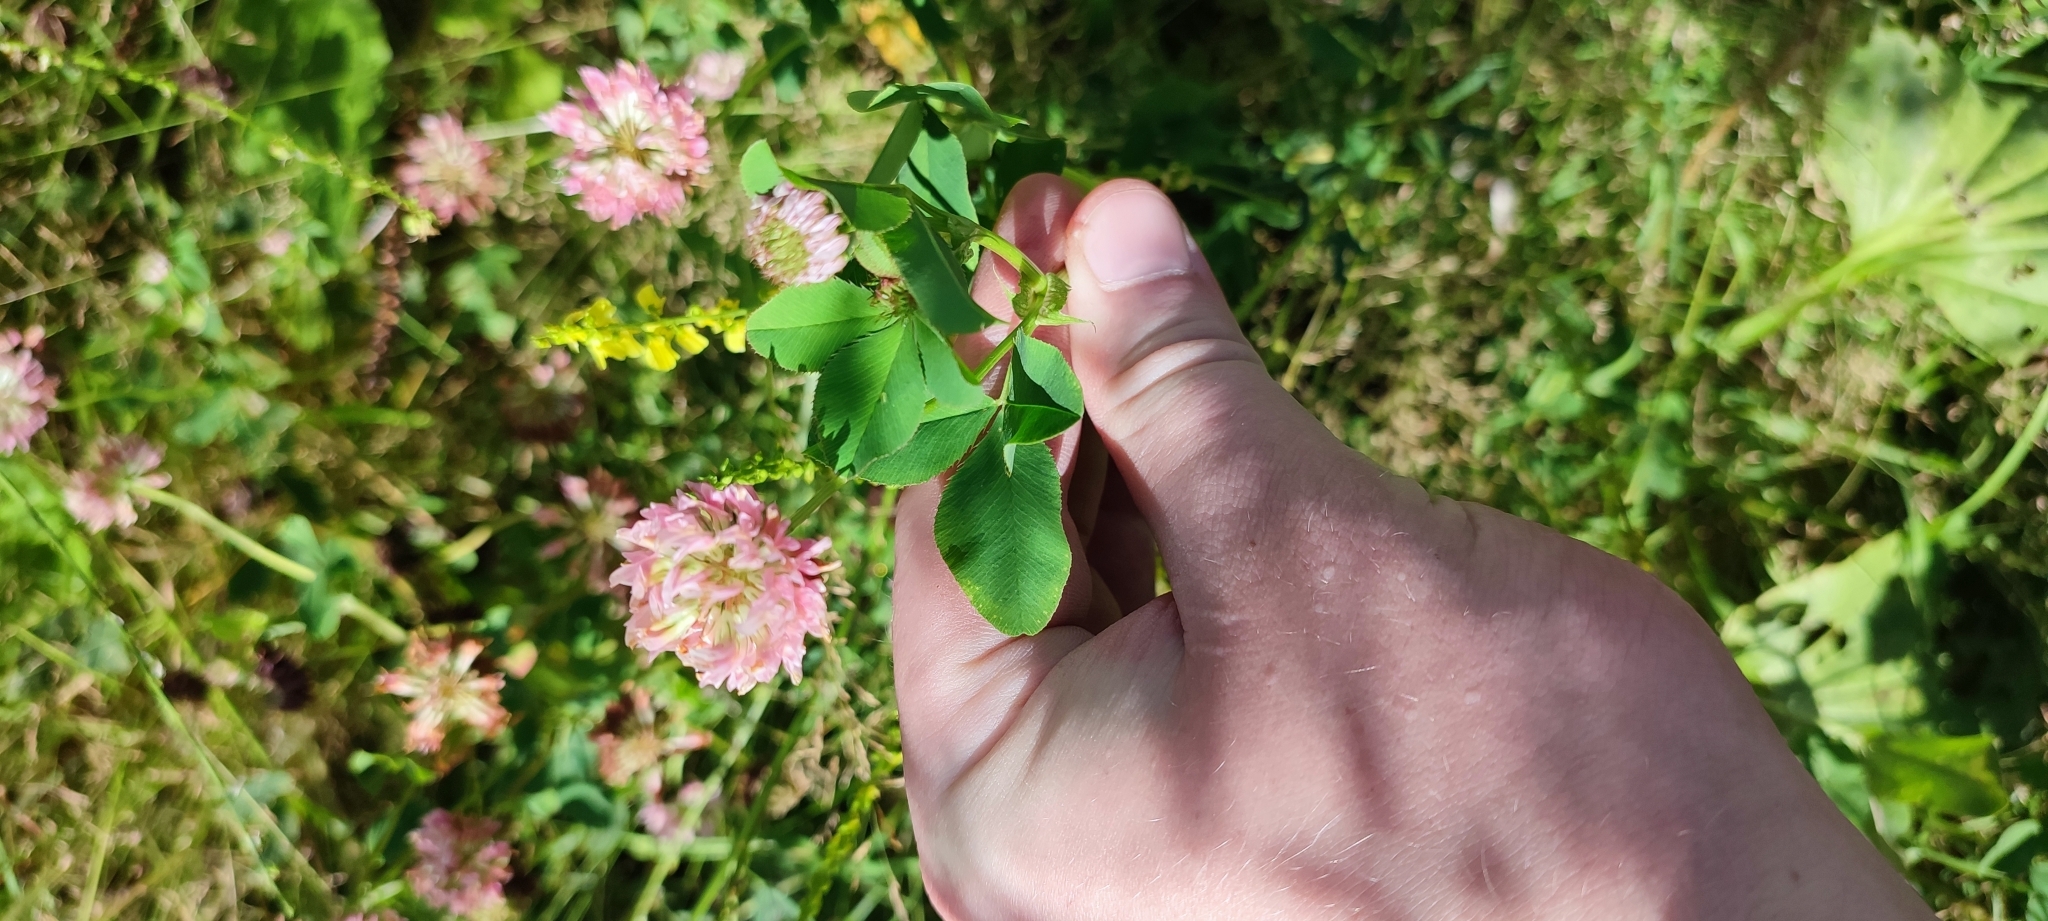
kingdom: Plantae
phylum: Tracheophyta
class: Magnoliopsida
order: Fabales
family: Fabaceae
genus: Trifolium
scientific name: Trifolium hybridum
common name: Alsike clover
